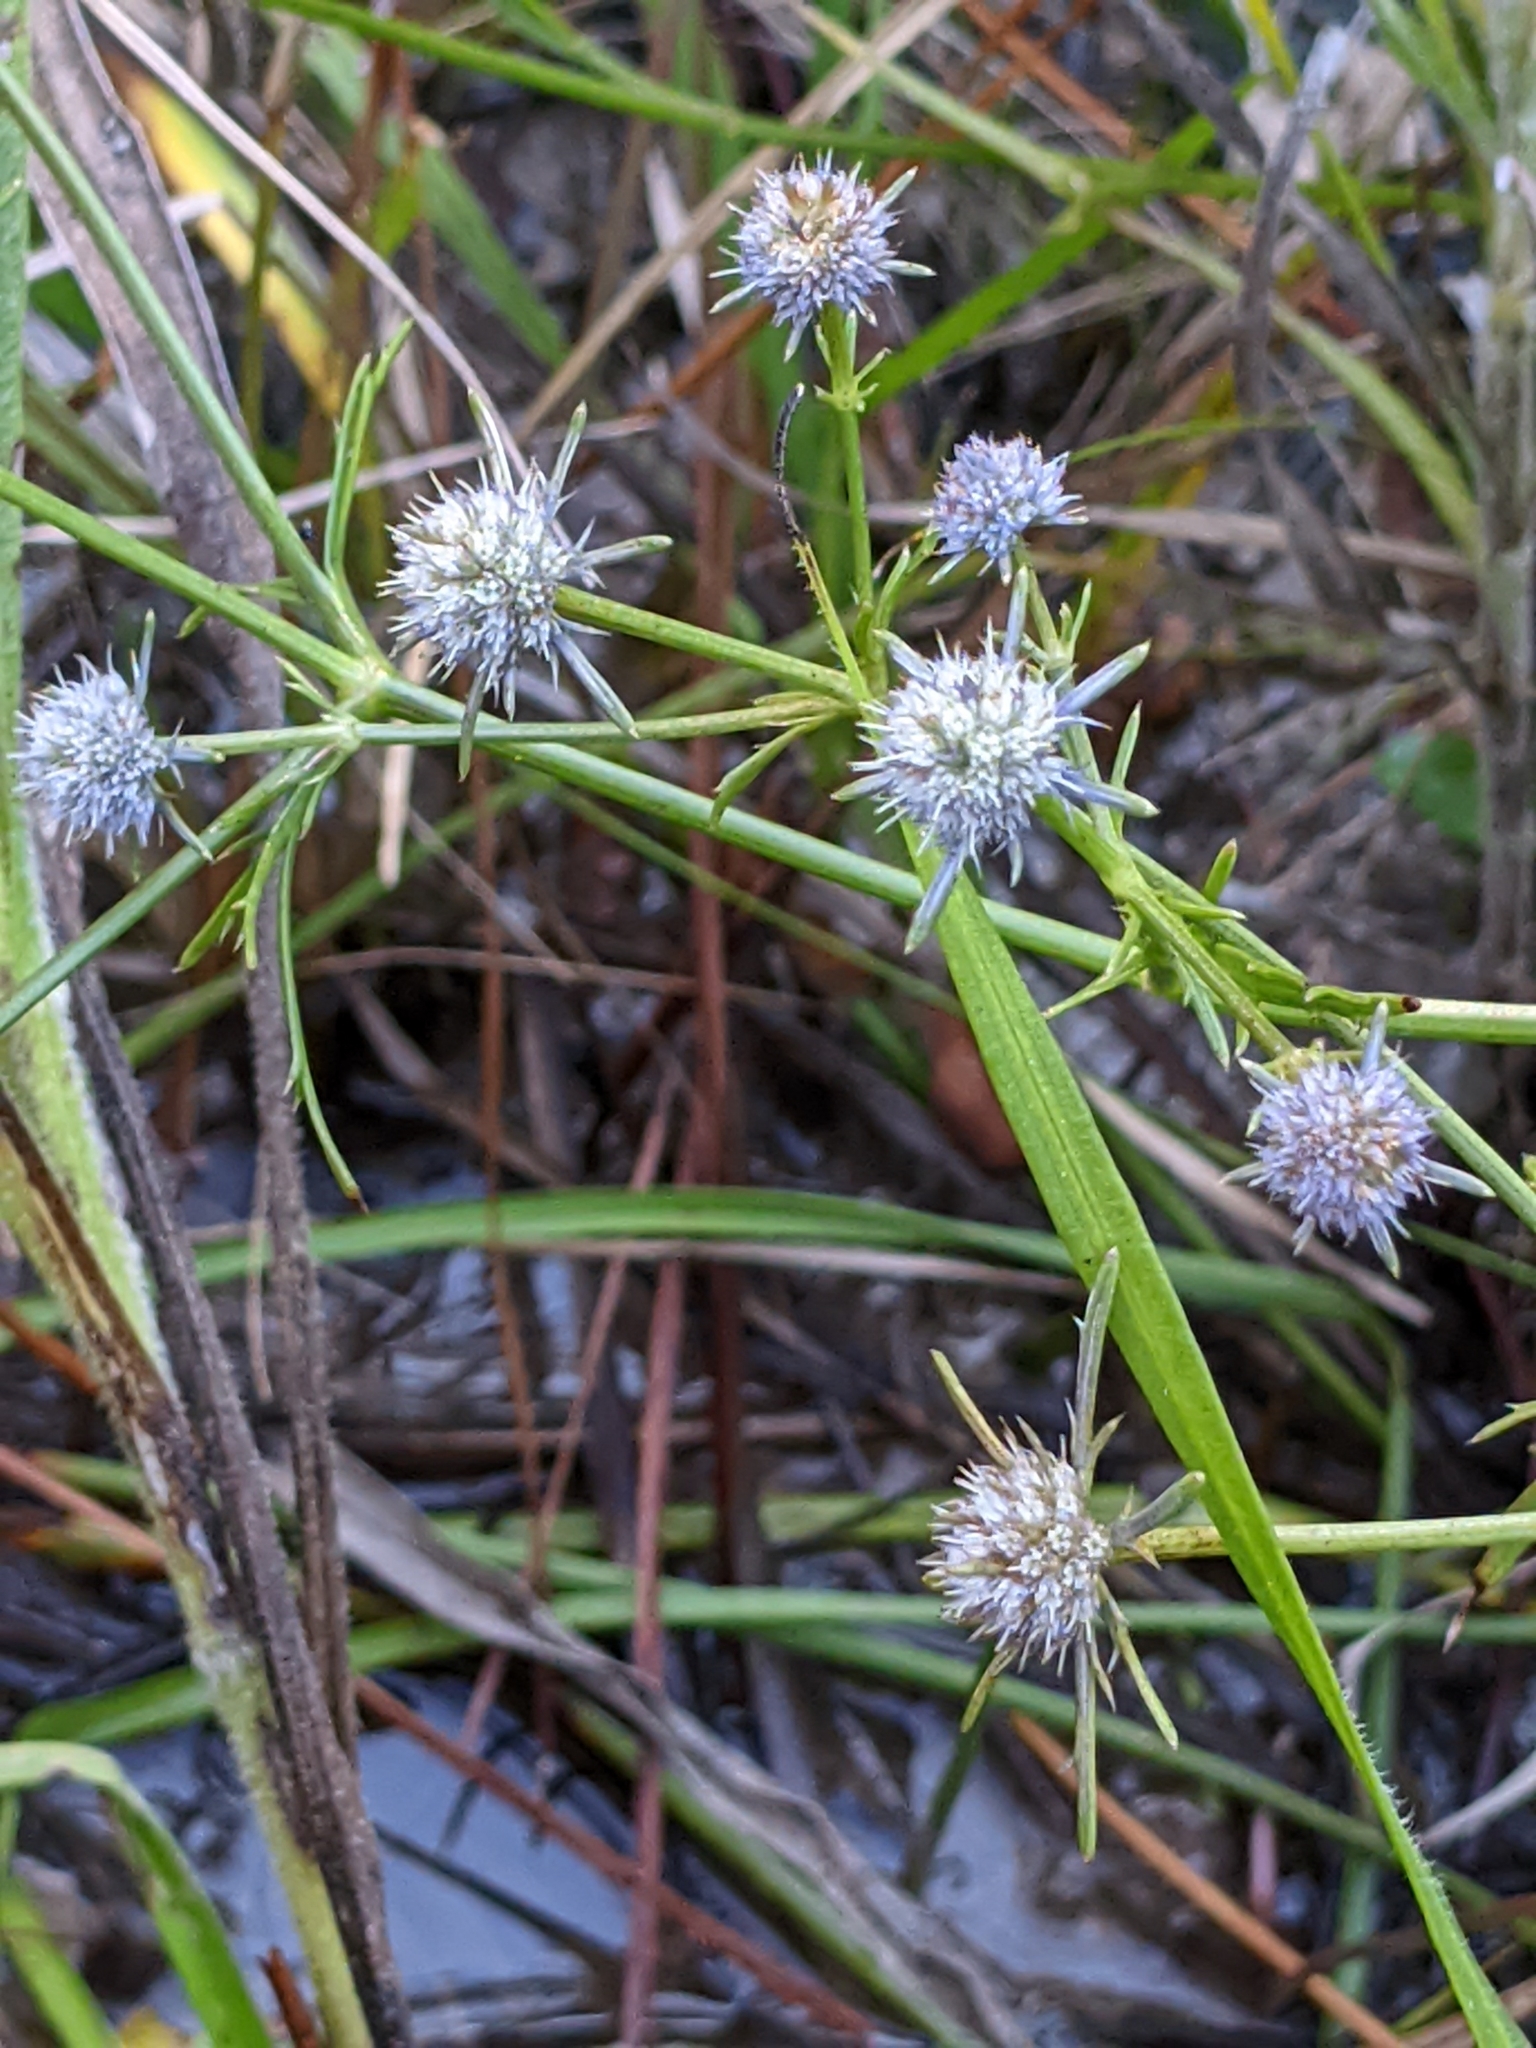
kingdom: Plantae
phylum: Tracheophyta
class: Magnoliopsida
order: Apiales
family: Apiaceae
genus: Eryngium
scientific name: Eryngium integrifolium
